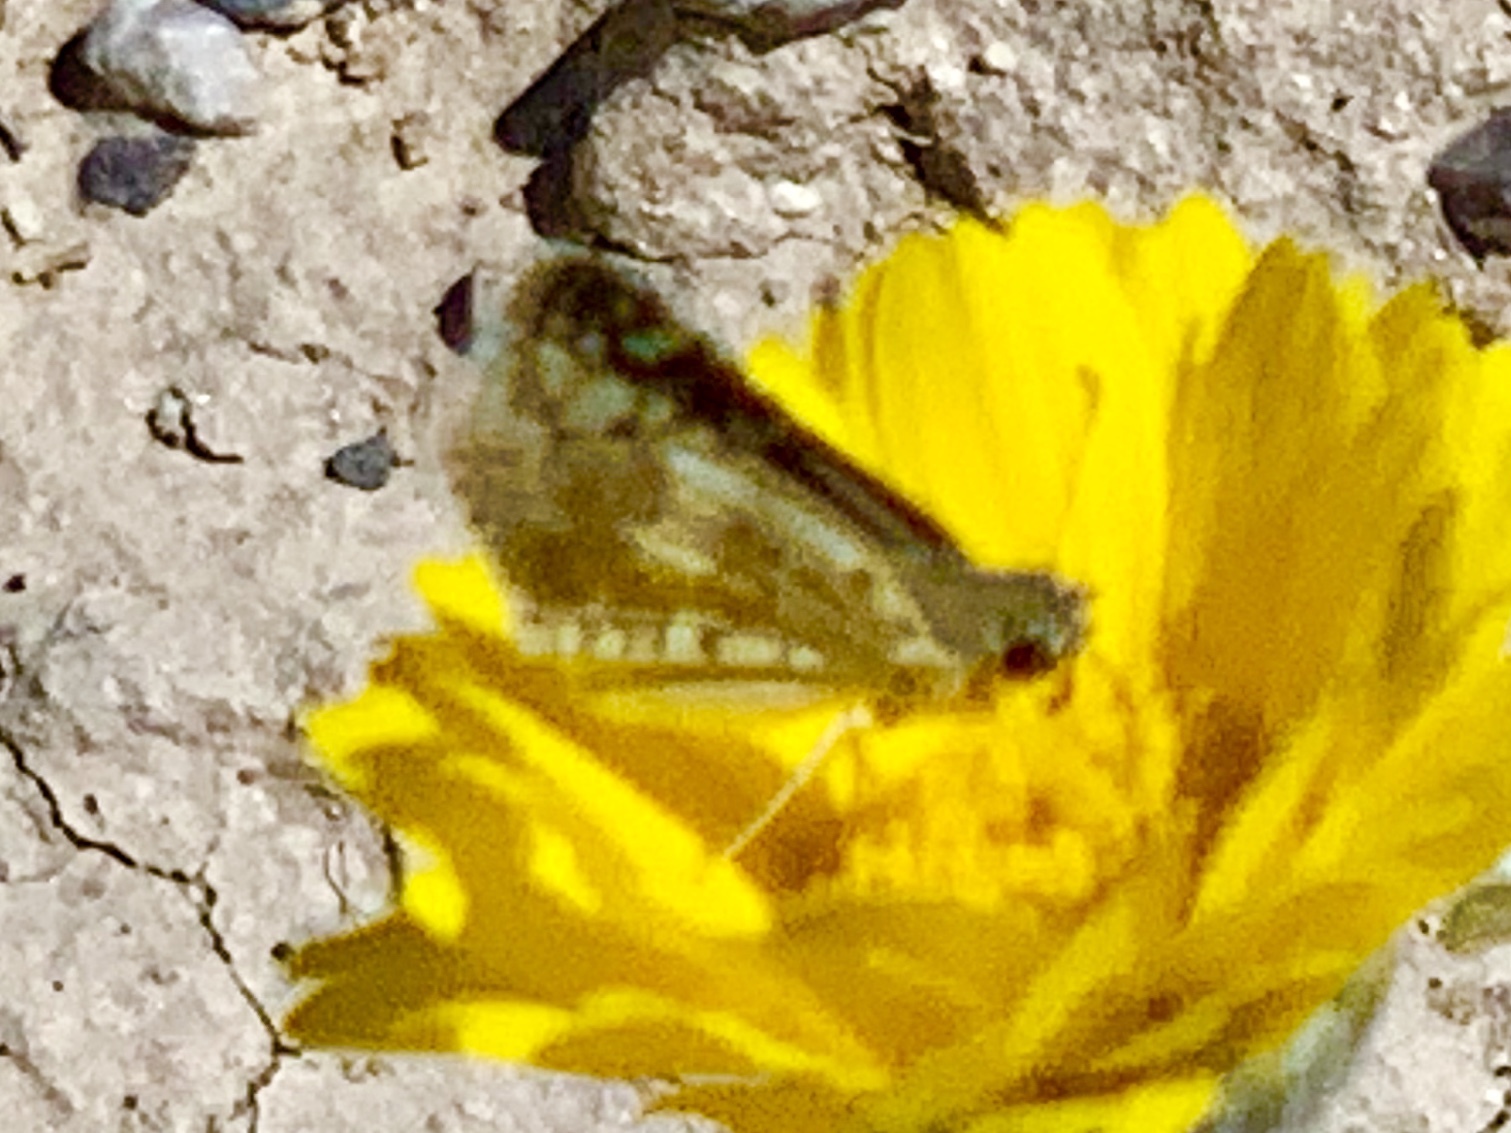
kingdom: Animalia
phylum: Arthropoda
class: Insecta
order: Lepidoptera
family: Hesperiidae
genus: Burnsius
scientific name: Burnsius albezens
